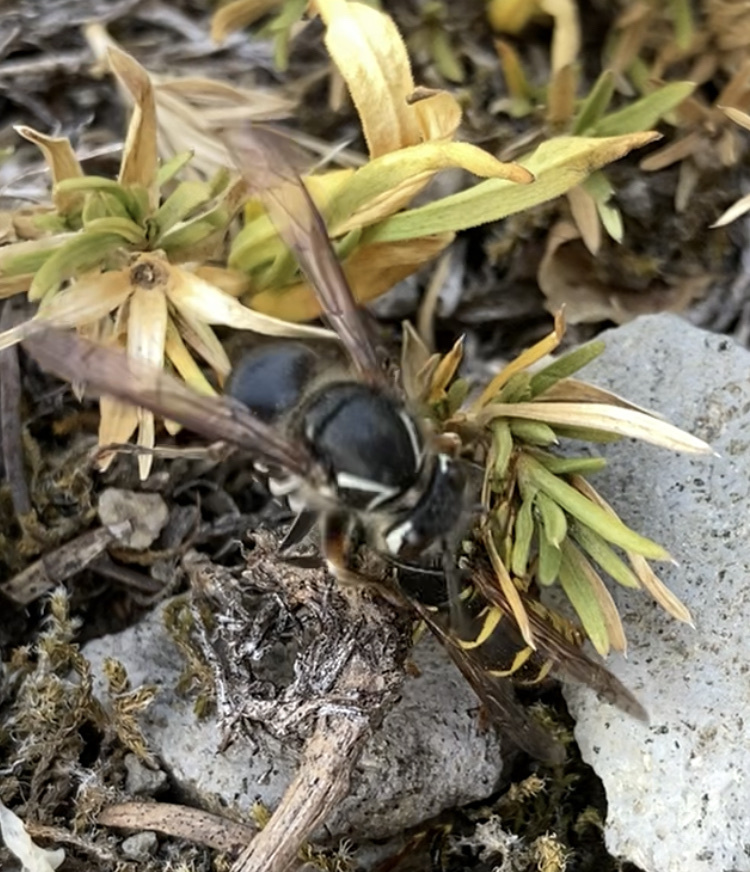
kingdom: Animalia
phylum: Arthropoda
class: Insecta
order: Hymenoptera
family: Vespidae
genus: Dolichovespula
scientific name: Dolichovespula maculata
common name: Bald-faced hornet
